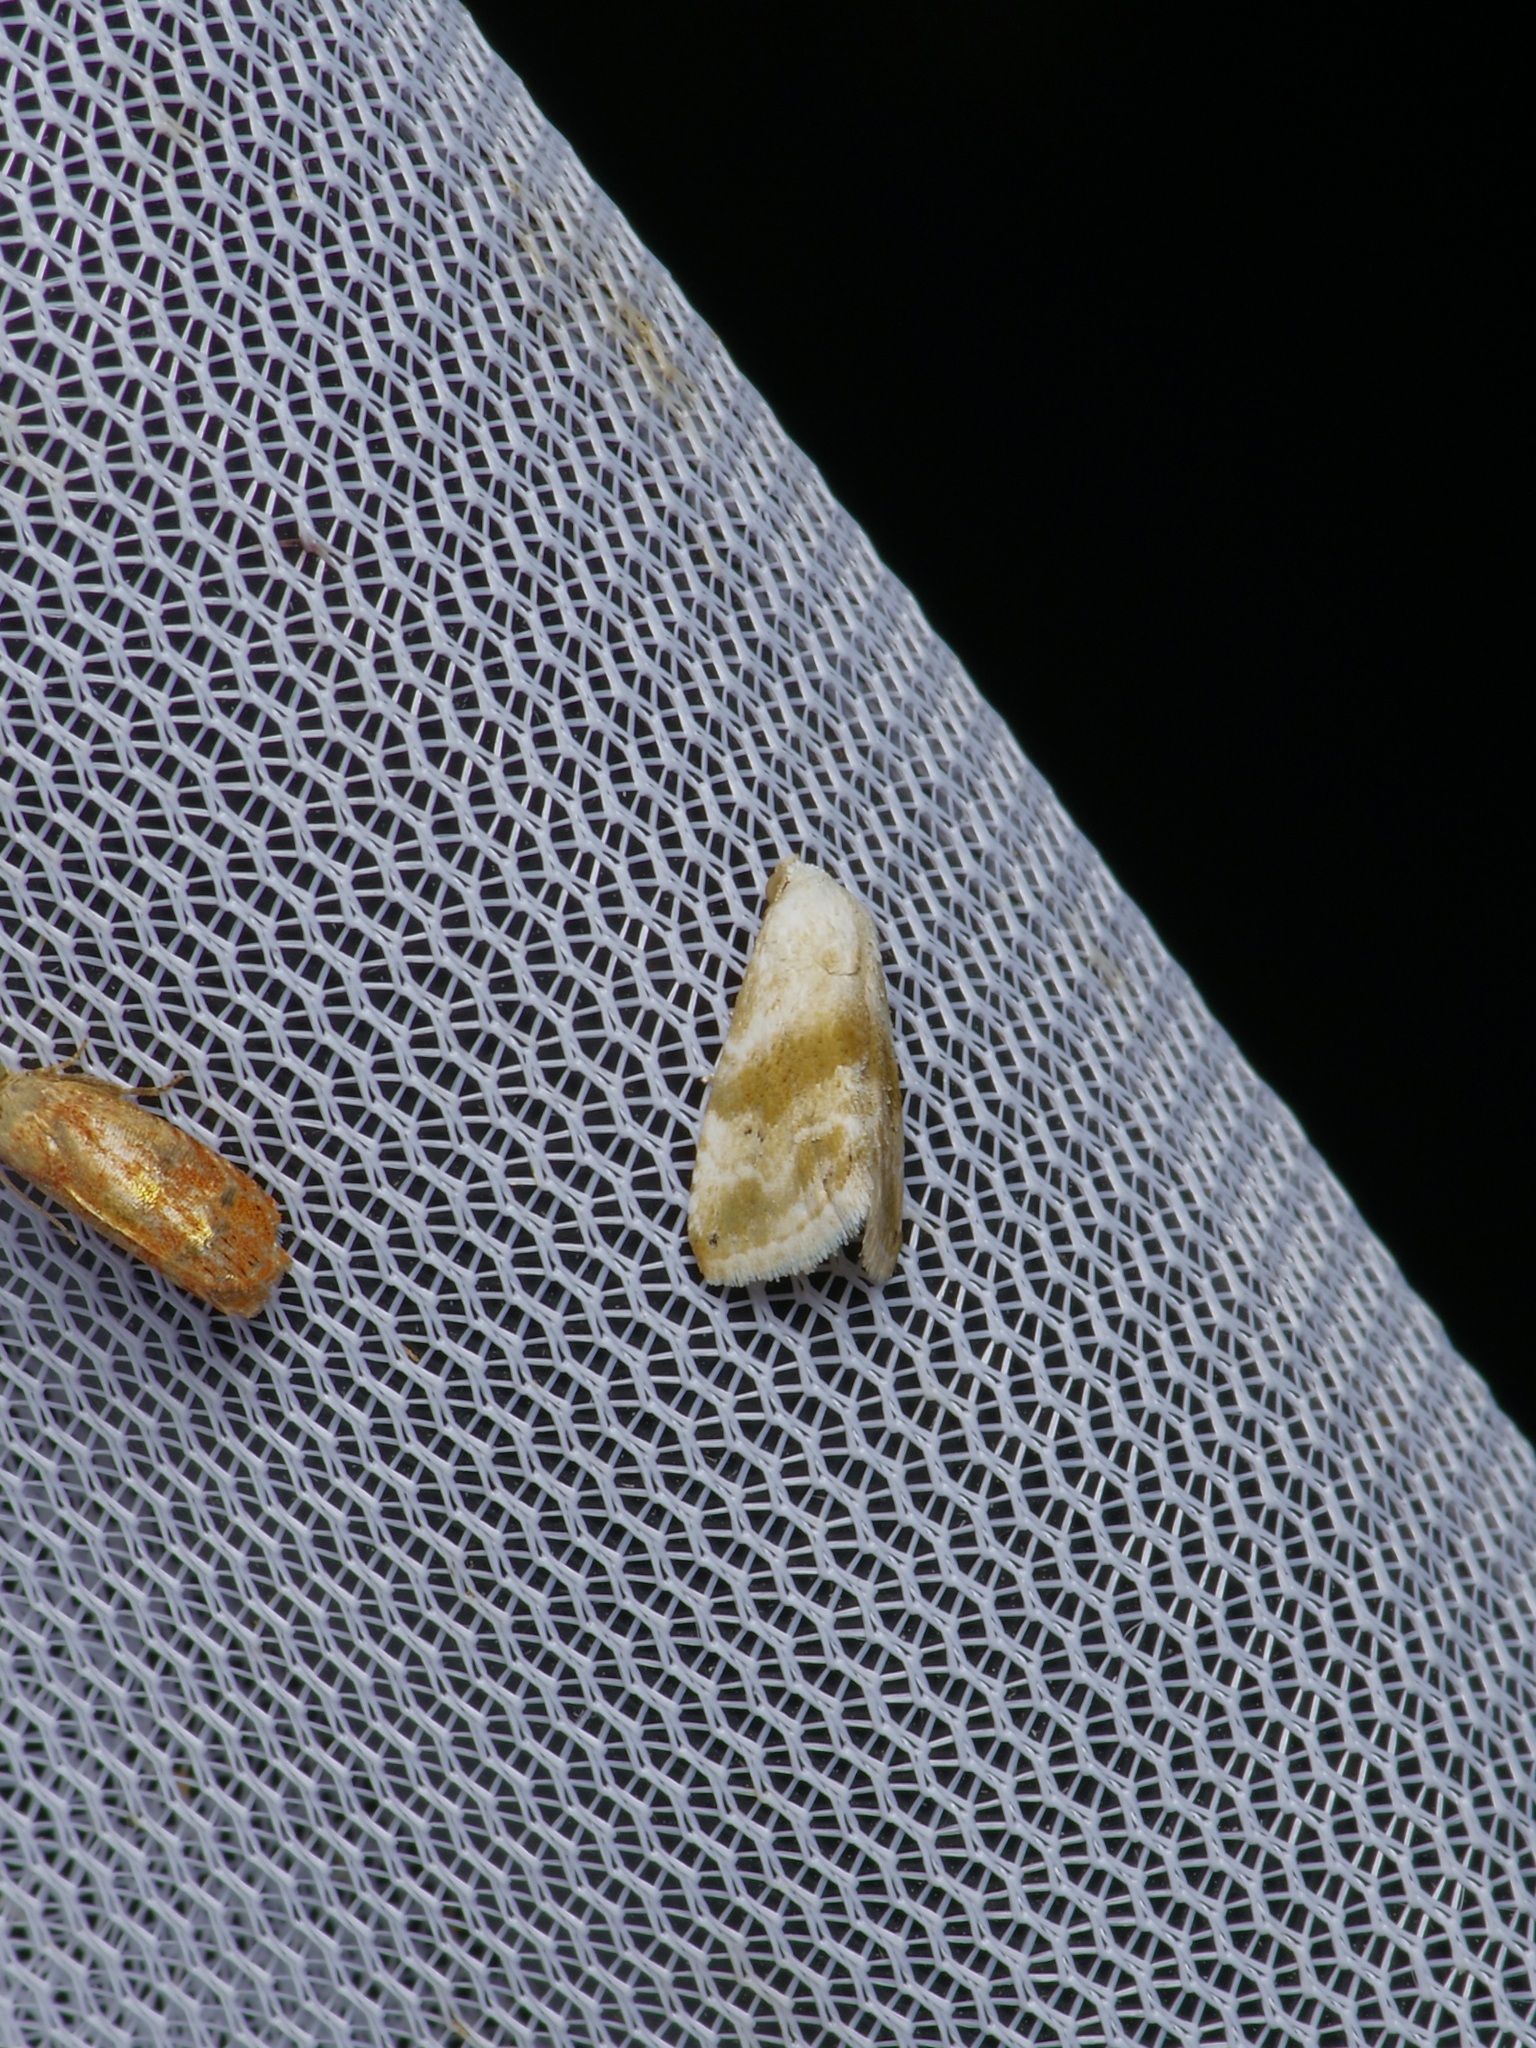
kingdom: Animalia
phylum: Arthropoda
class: Insecta
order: Lepidoptera
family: Noctuidae
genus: Eublemma
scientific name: Eublemma minima
